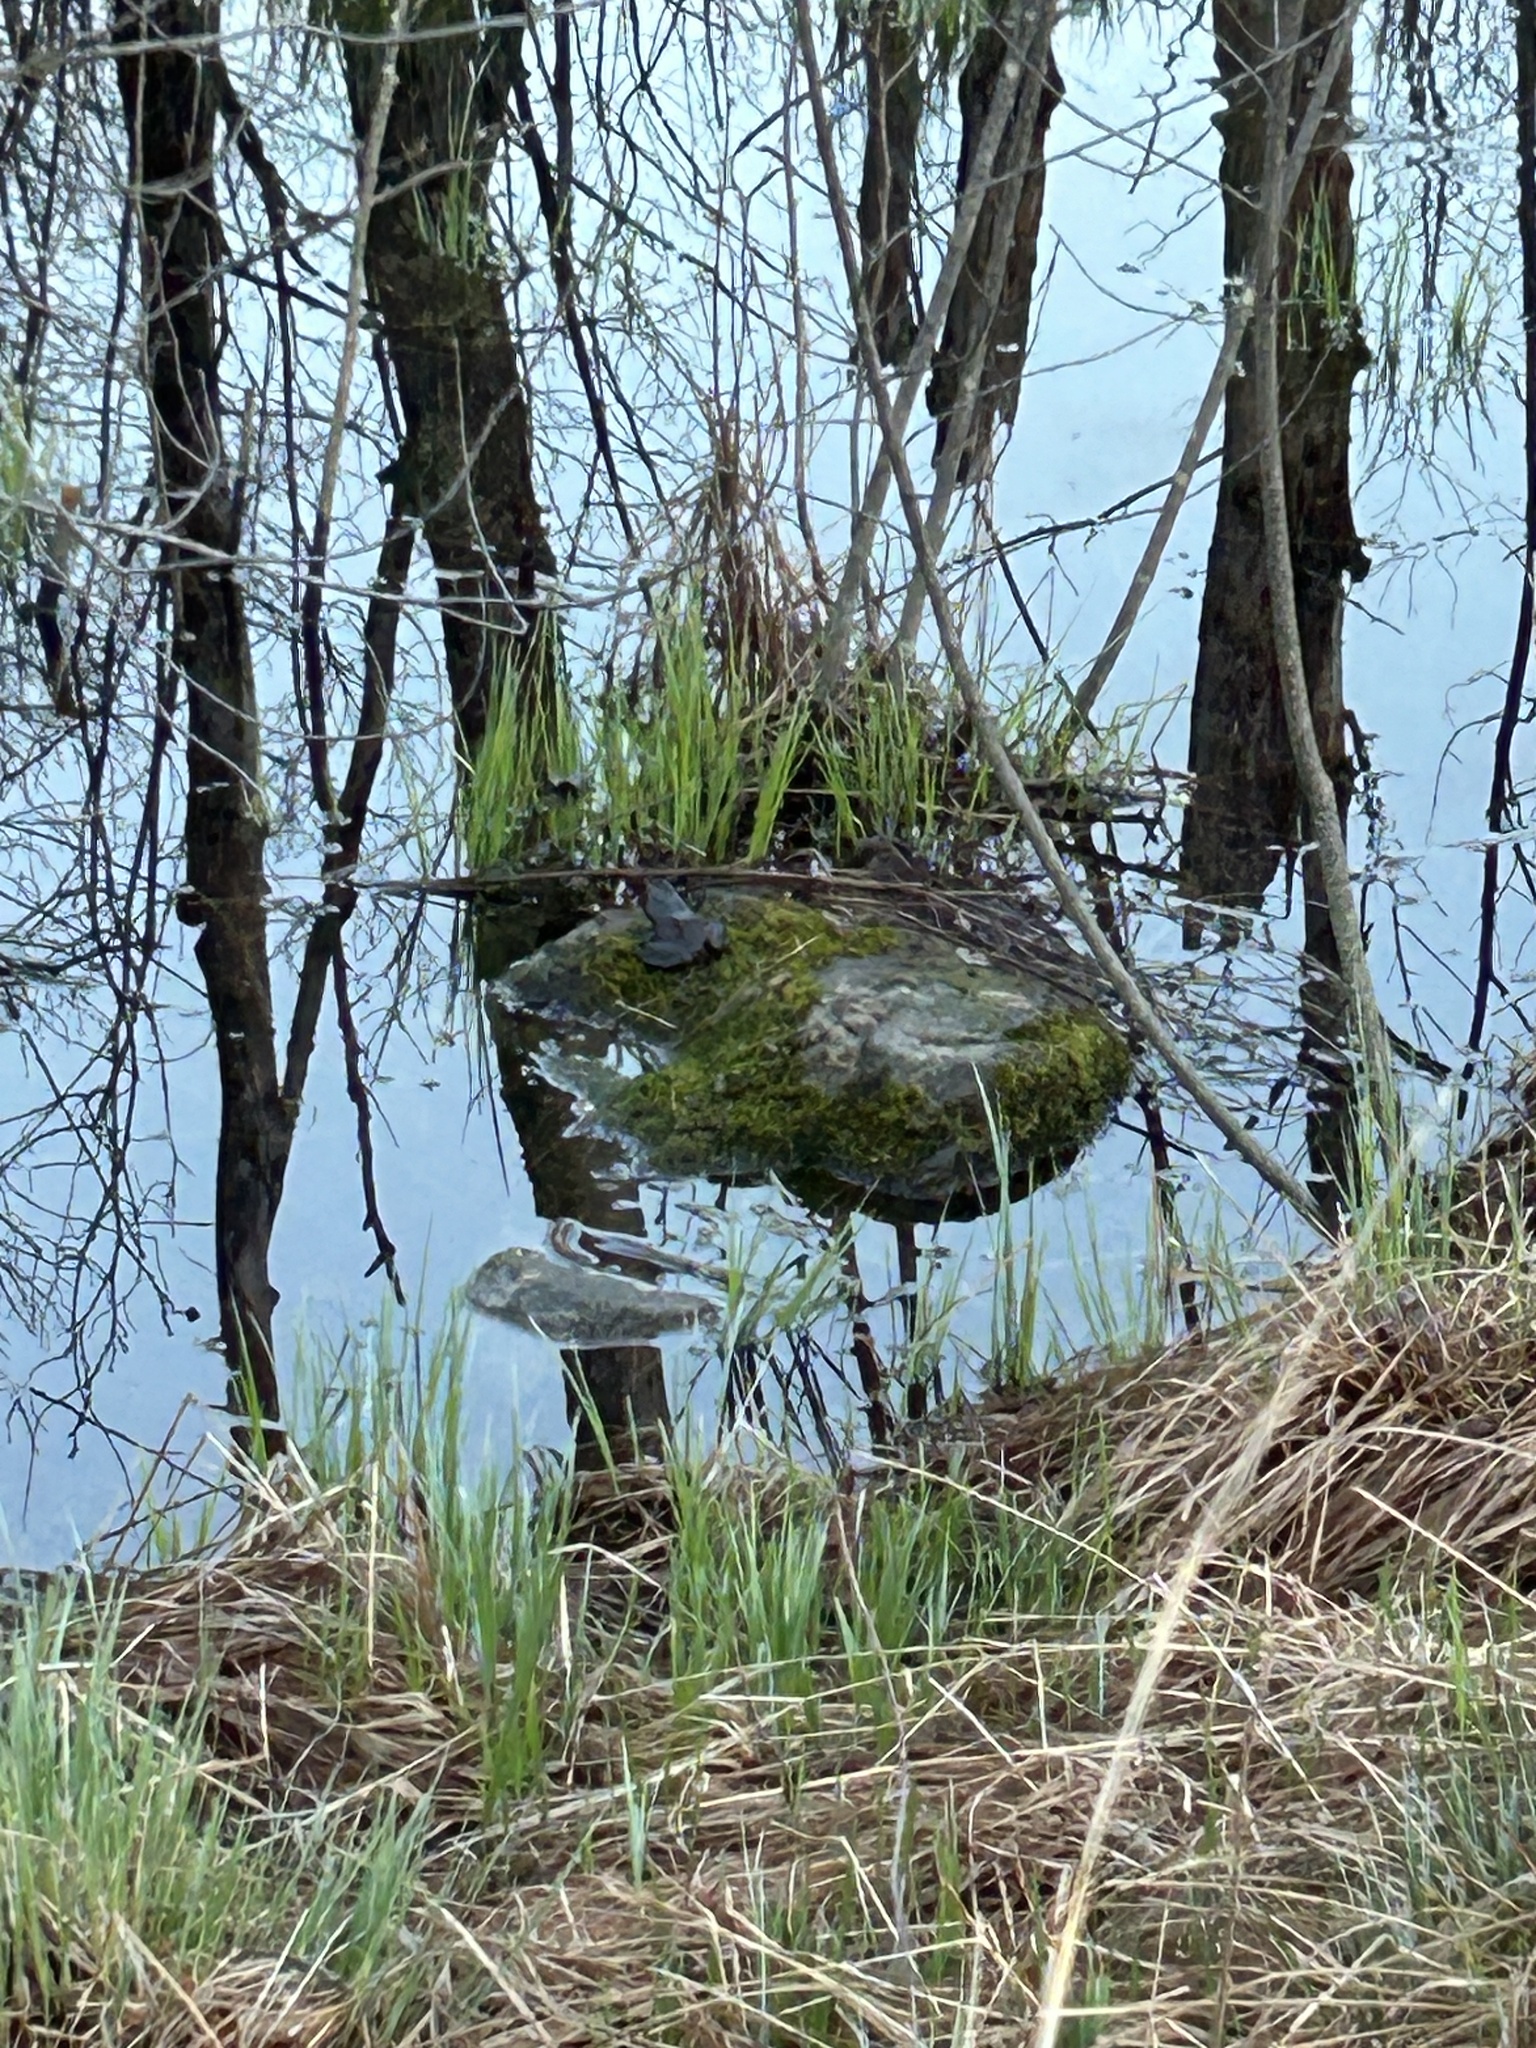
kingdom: Animalia
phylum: Chordata
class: Amphibia
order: Anura
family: Ranidae
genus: Lithobates
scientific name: Lithobates catesbeianus
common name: American bullfrog
